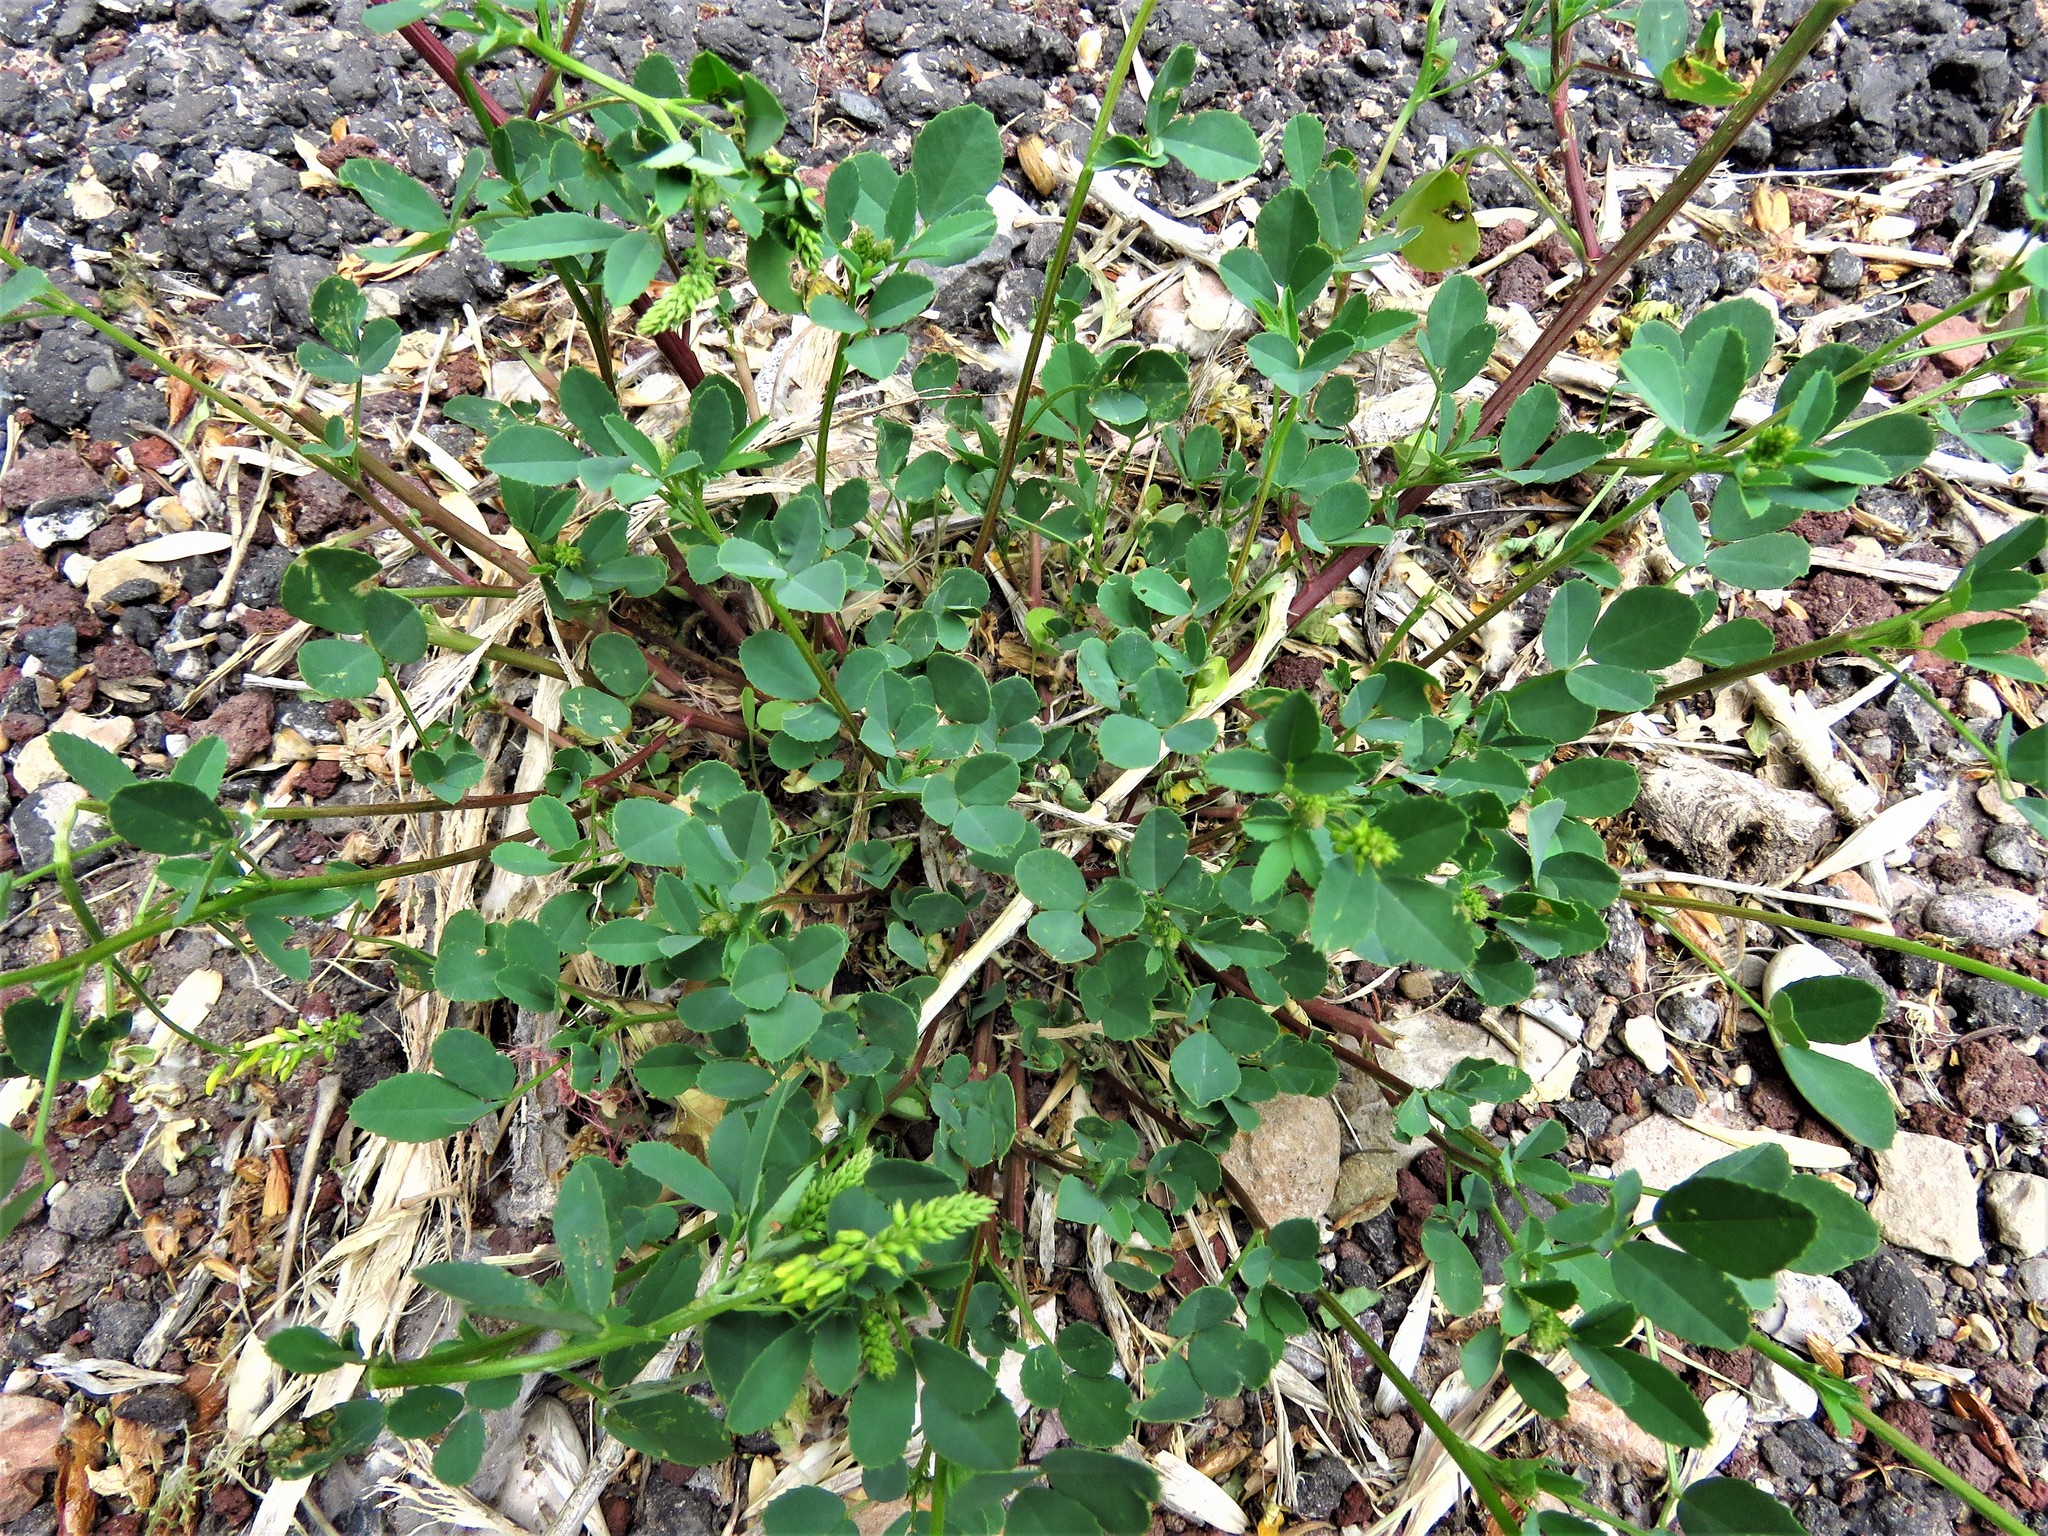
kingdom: Plantae
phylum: Tracheophyta
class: Magnoliopsida
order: Fabales
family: Fabaceae
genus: Melilotus
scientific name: Melilotus officinalis
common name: Sweetclover
